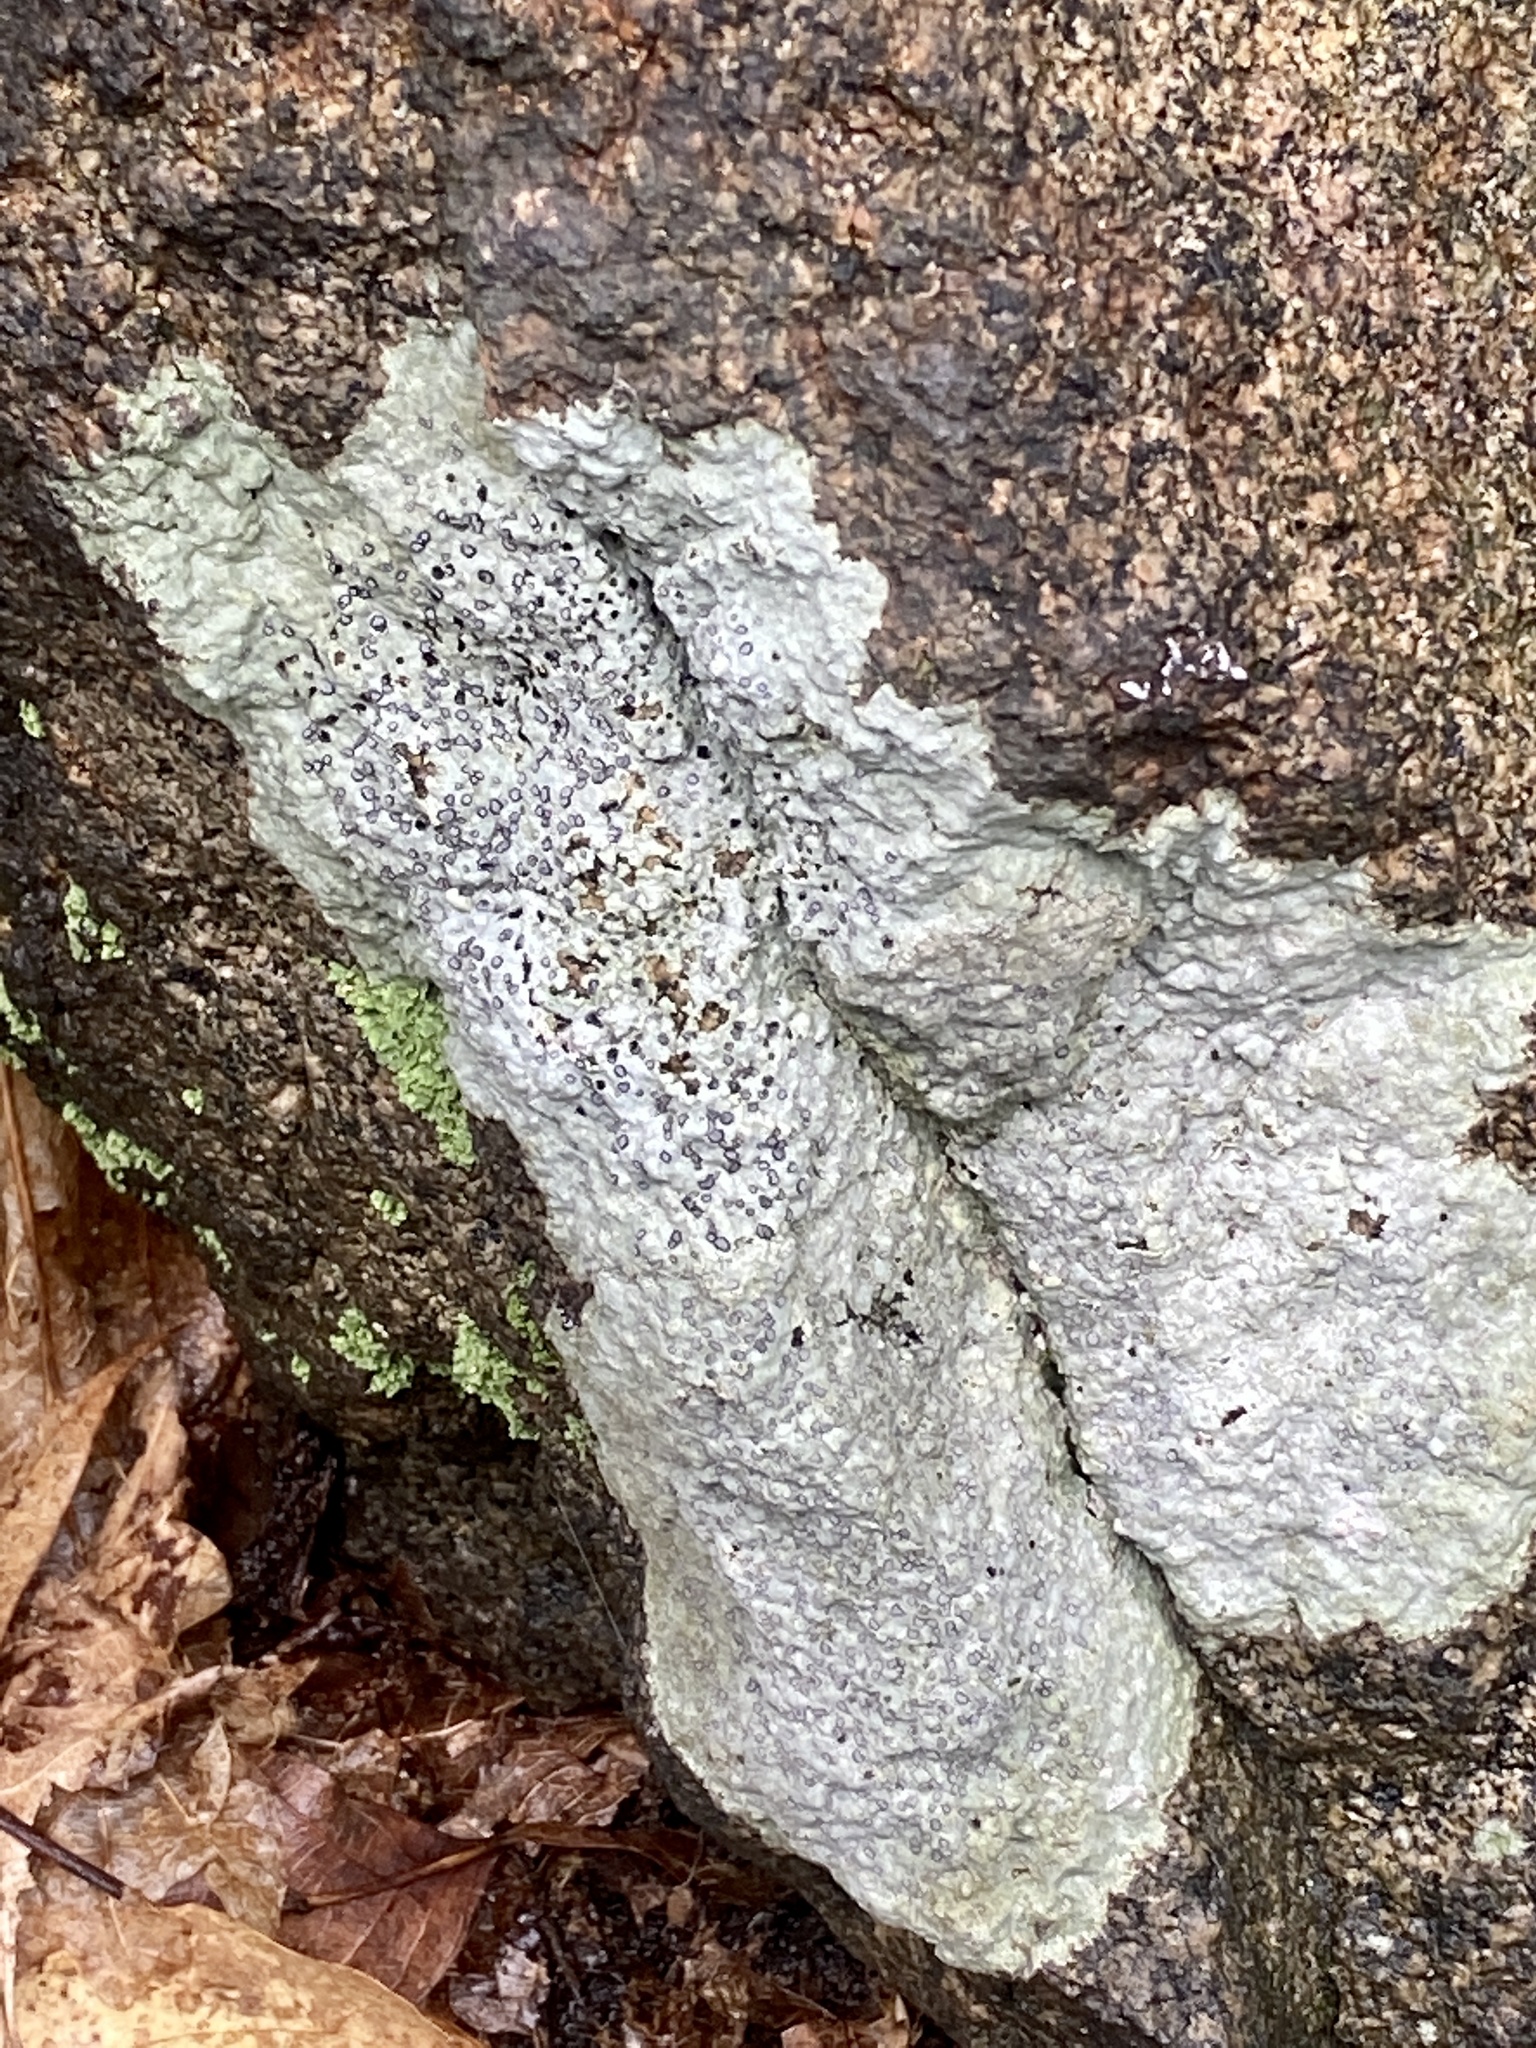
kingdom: Fungi
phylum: Ascomycota
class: Lecanoromycetes
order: Lecideales
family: Lecideaceae
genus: Porpidia
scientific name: Porpidia albocaerulescens
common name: Smokey-eyed boulder lichen
